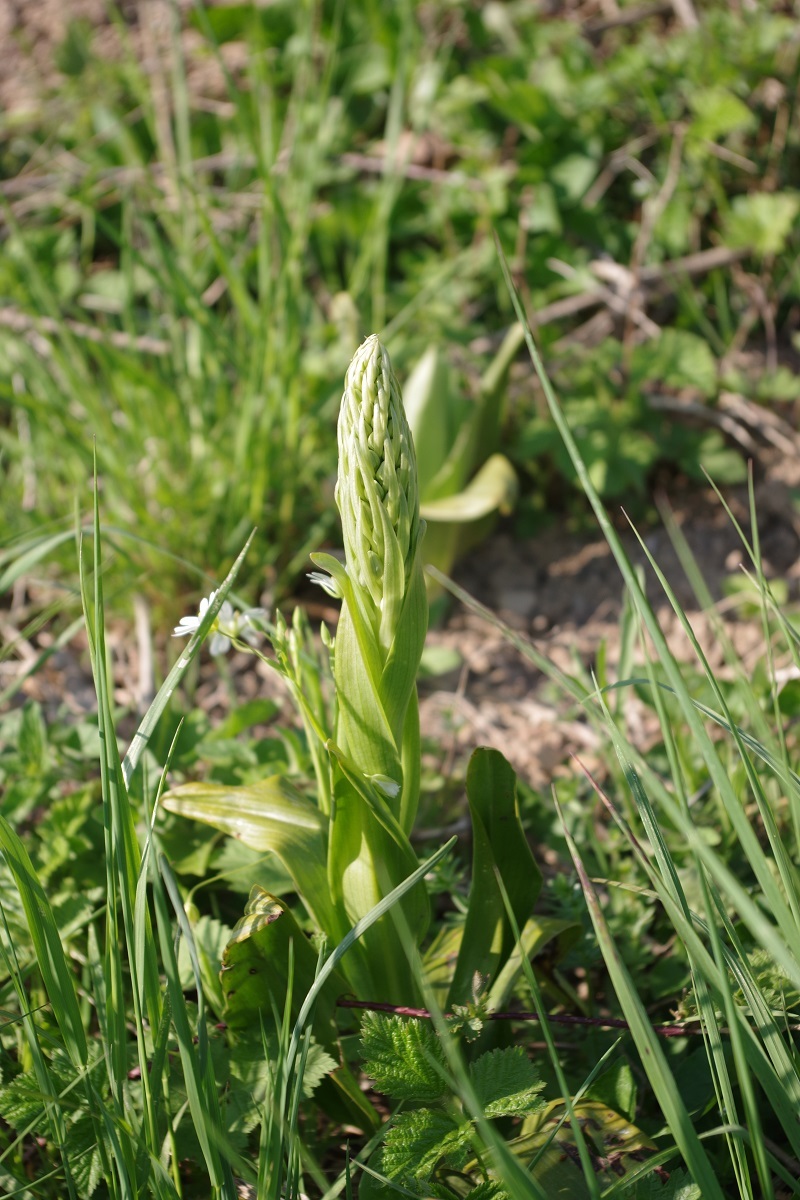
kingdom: Plantae
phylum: Tracheophyta
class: Liliopsida
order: Asparagales
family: Orchidaceae
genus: Himantoglossum
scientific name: Himantoglossum hircinum
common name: Lizard orchid
